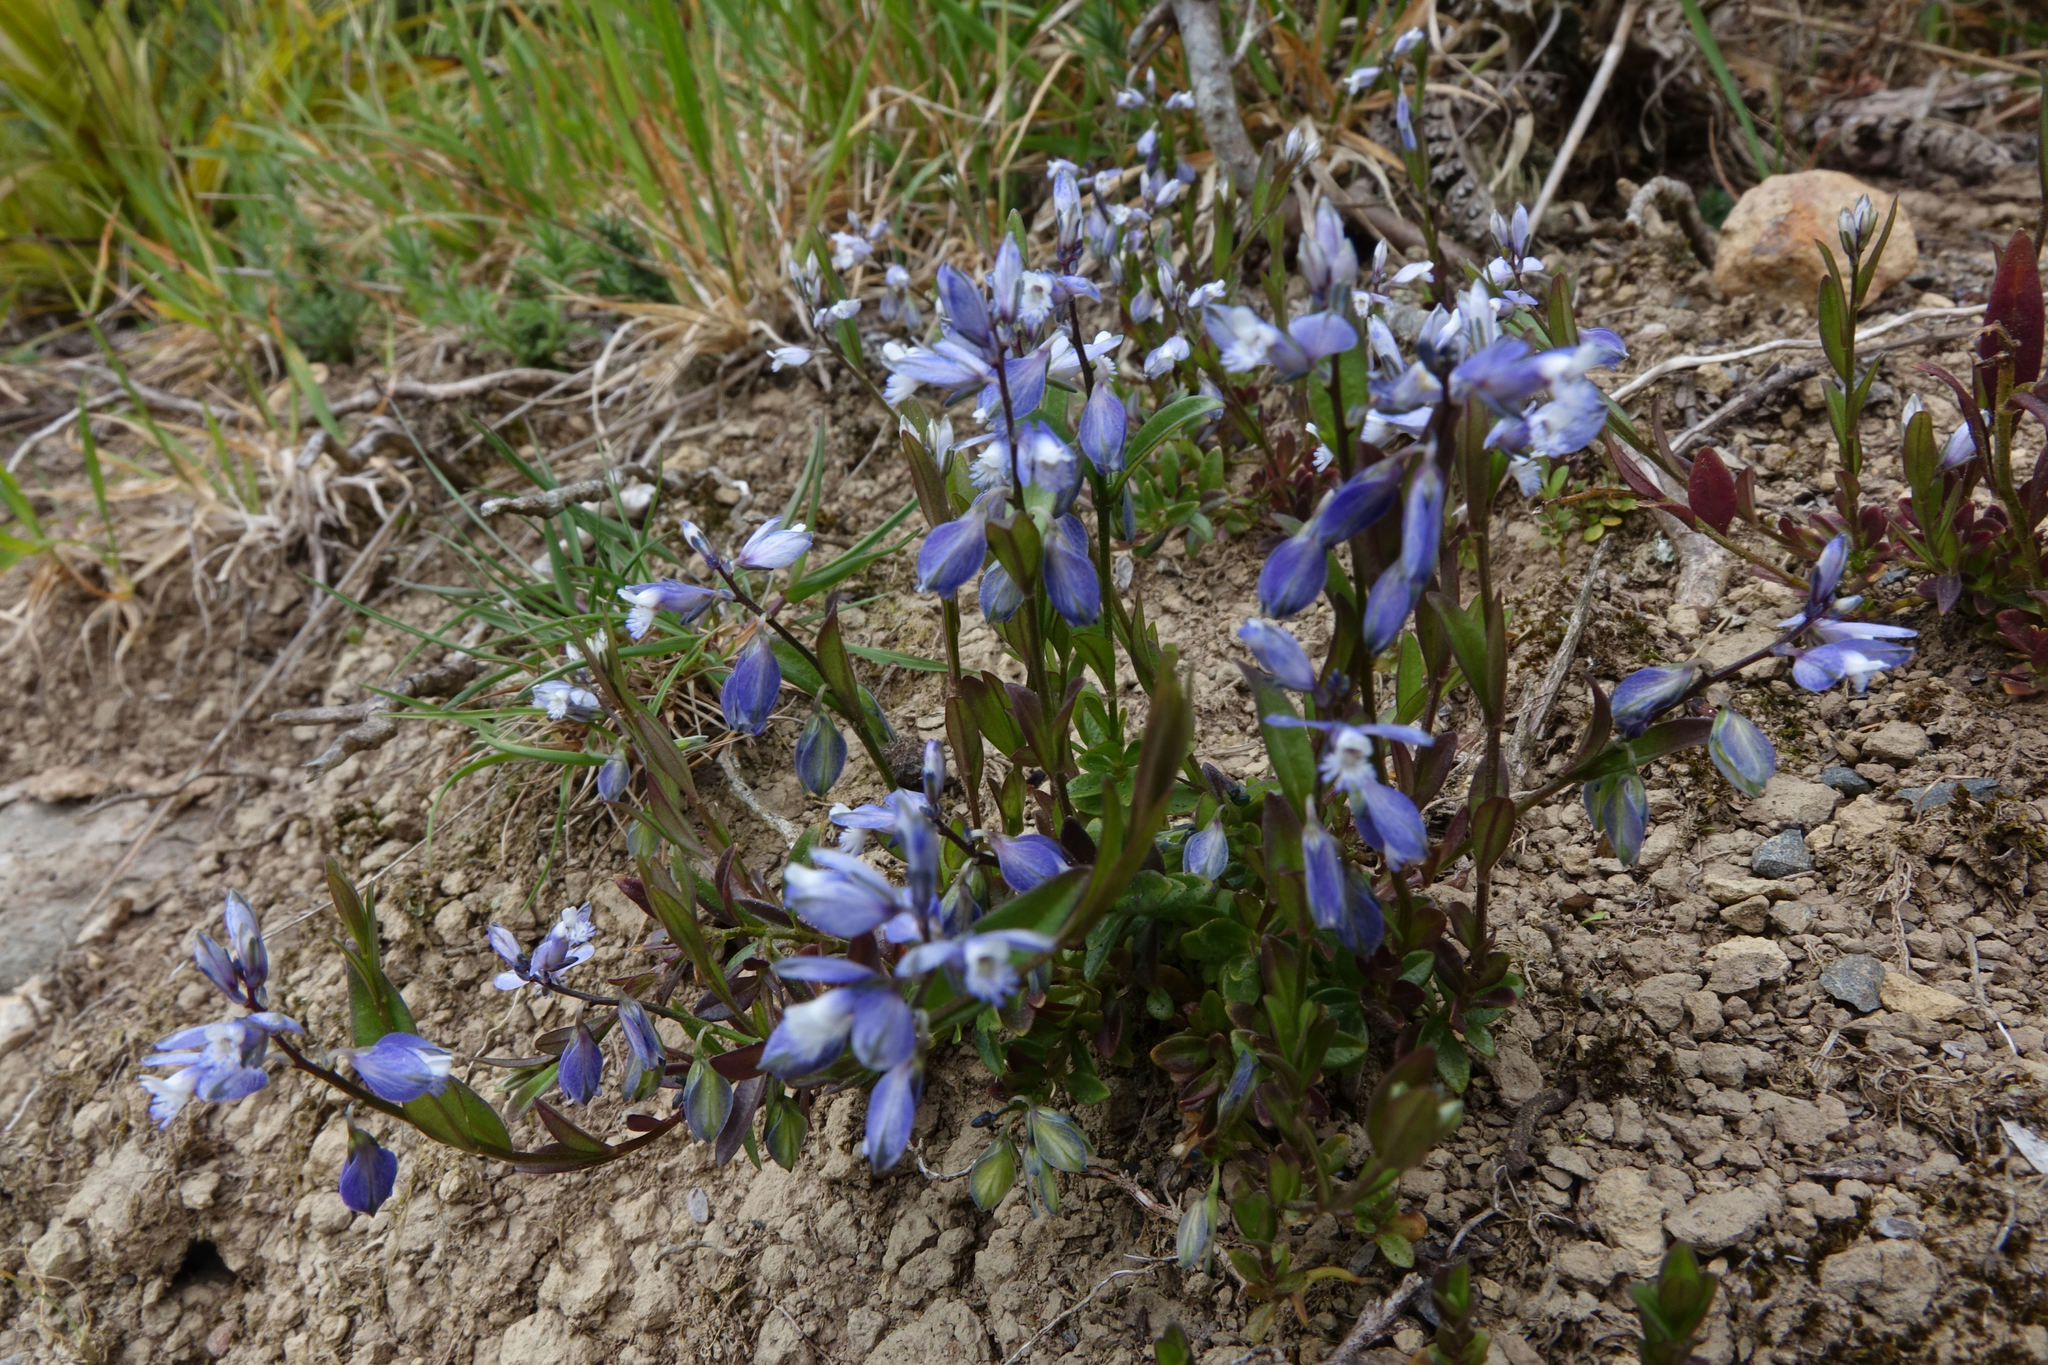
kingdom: Plantae
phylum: Tracheophyta
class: Magnoliopsida
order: Fabales
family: Polygalaceae
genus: Polygala
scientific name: Polygala serpyllifolia
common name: Heath milkwort
